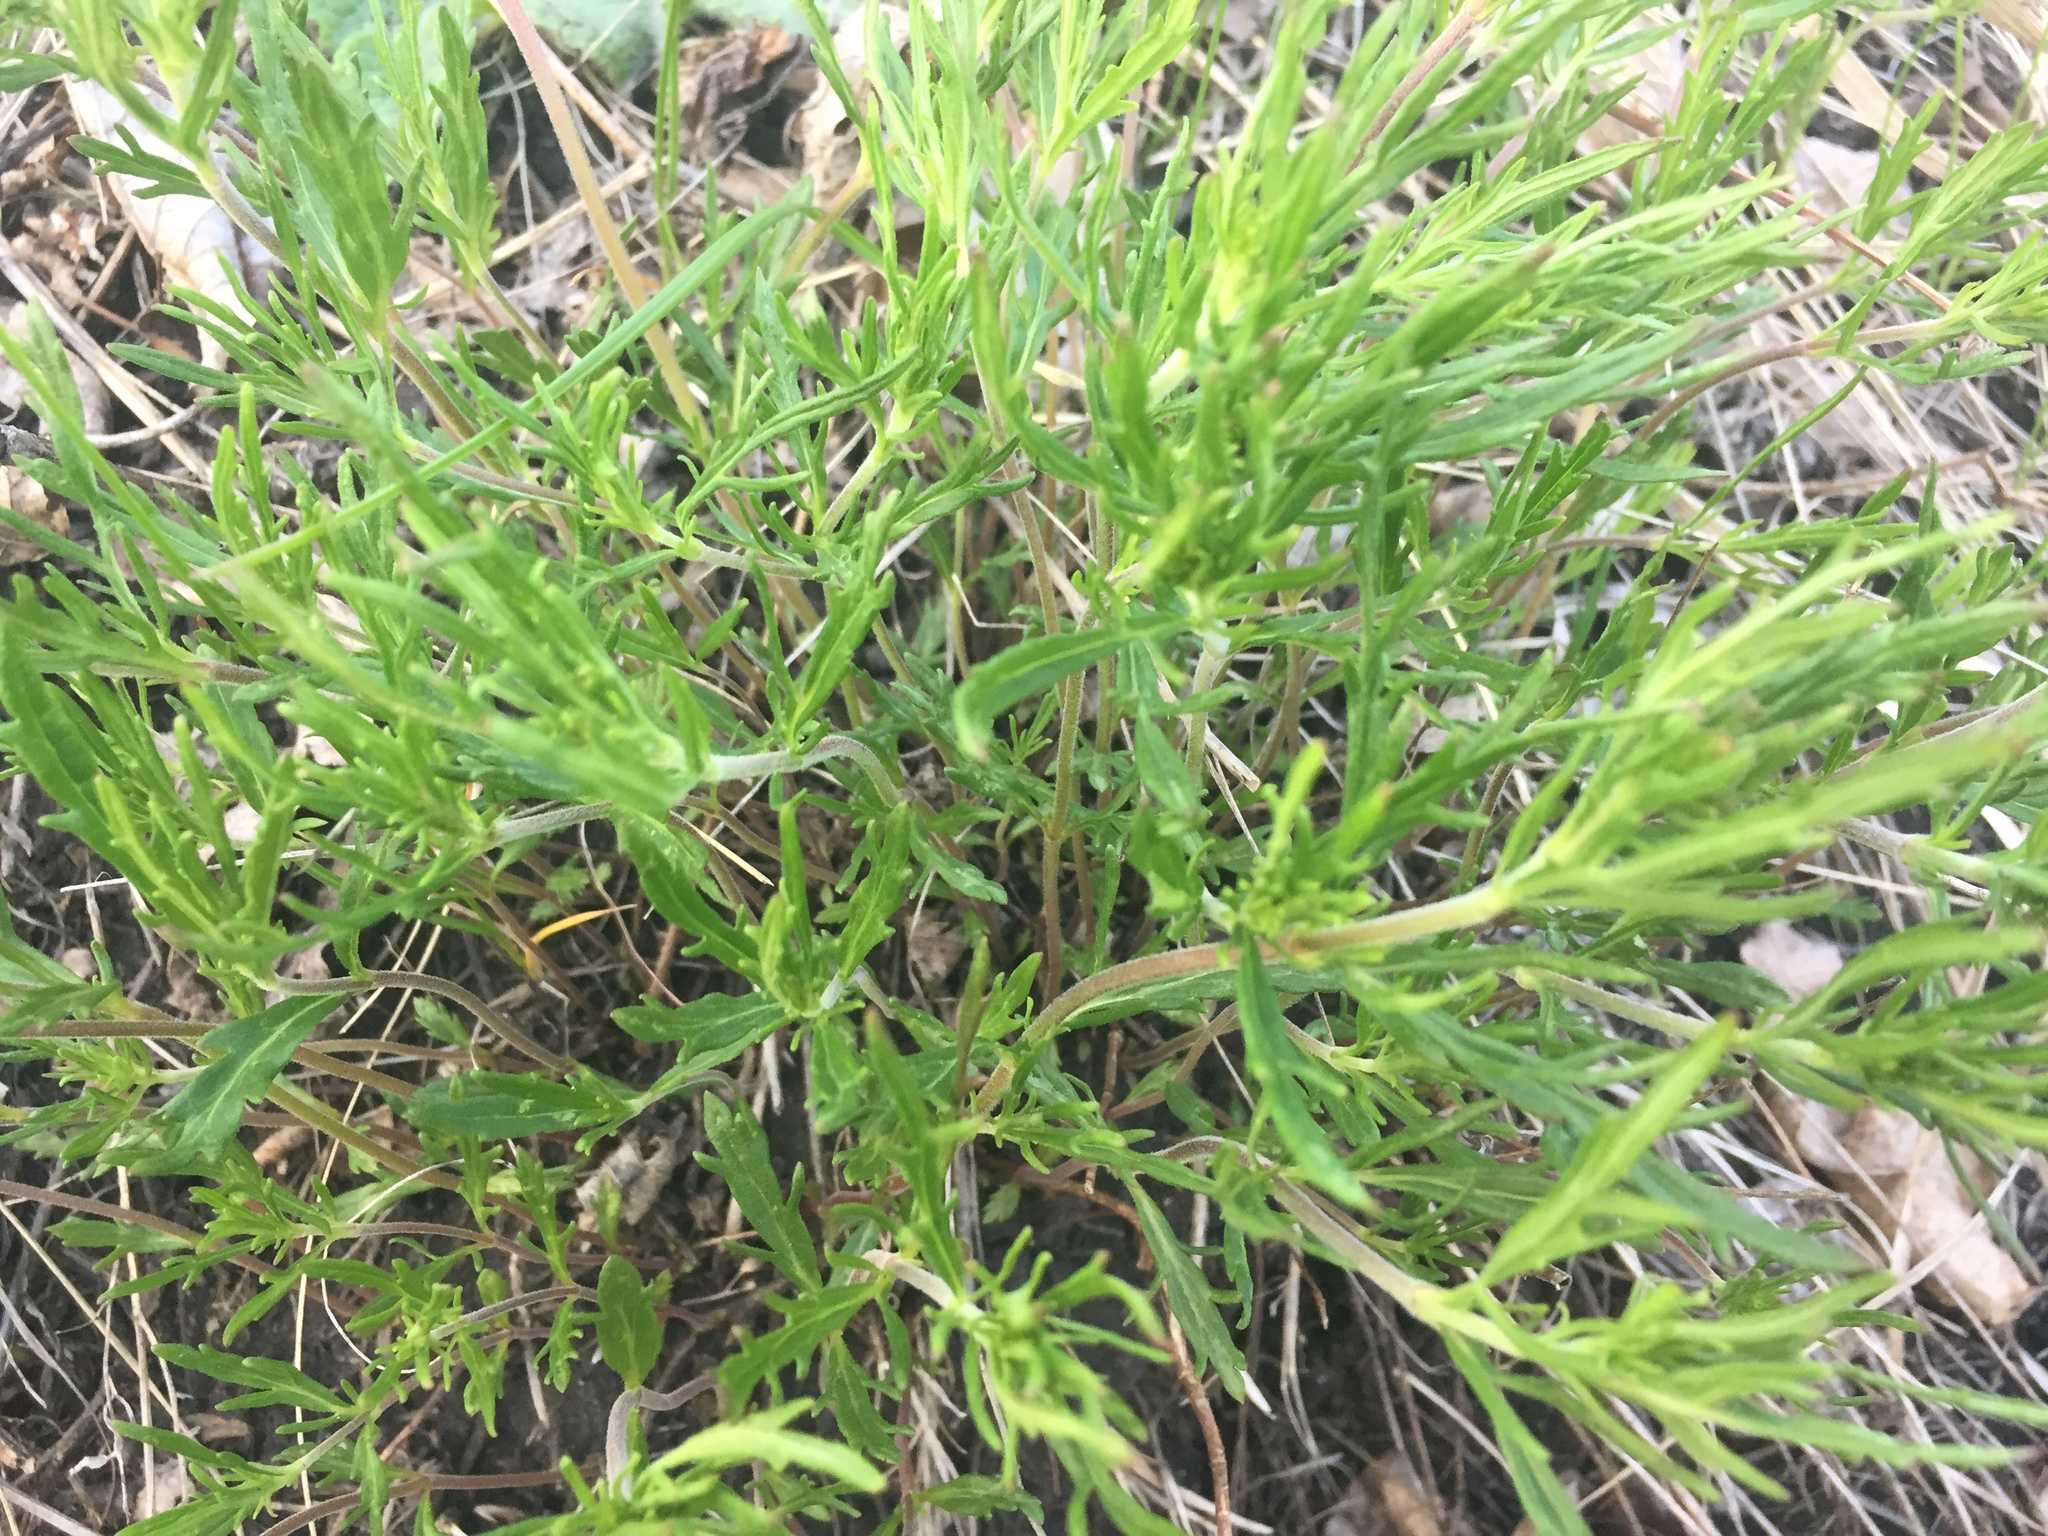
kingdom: Plantae
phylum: Tracheophyta
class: Magnoliopsida
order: Lamiales
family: Plantaginaceae
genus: Veronica
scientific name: Veronica austriaca
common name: Large speedwell
